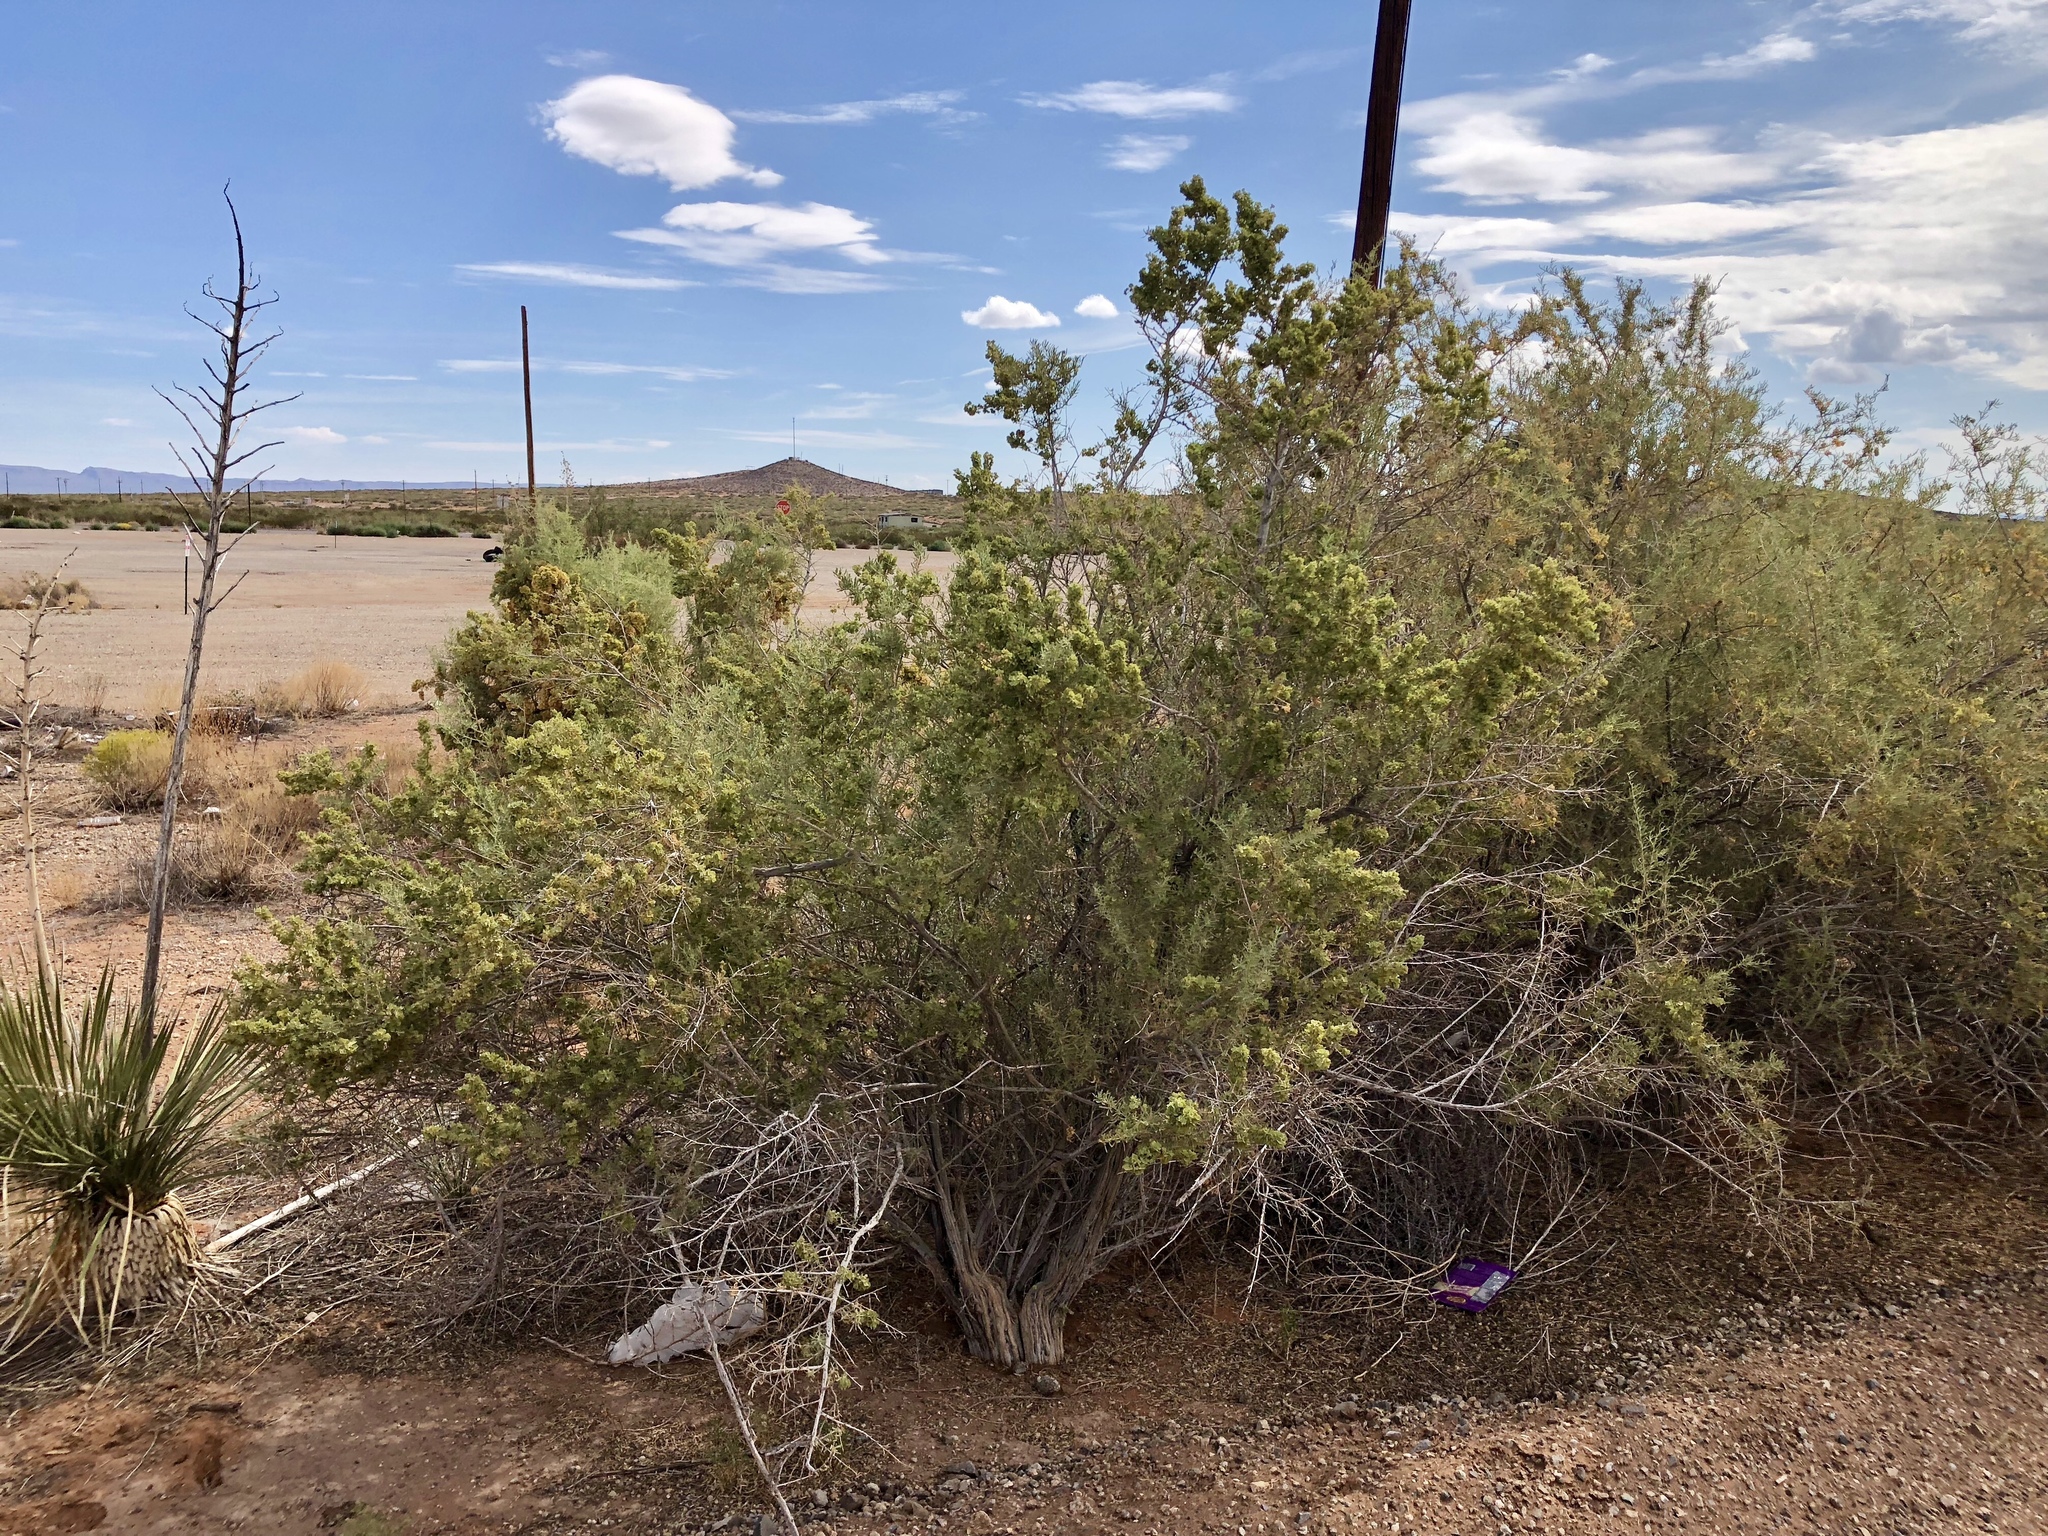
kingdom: Plantae
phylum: Tracheophyta
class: Magnoliopsida
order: Caryophyllales
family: Amaranthaceae
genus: Atriplex
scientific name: Atriplex canescens
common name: Four-wing saltbush
